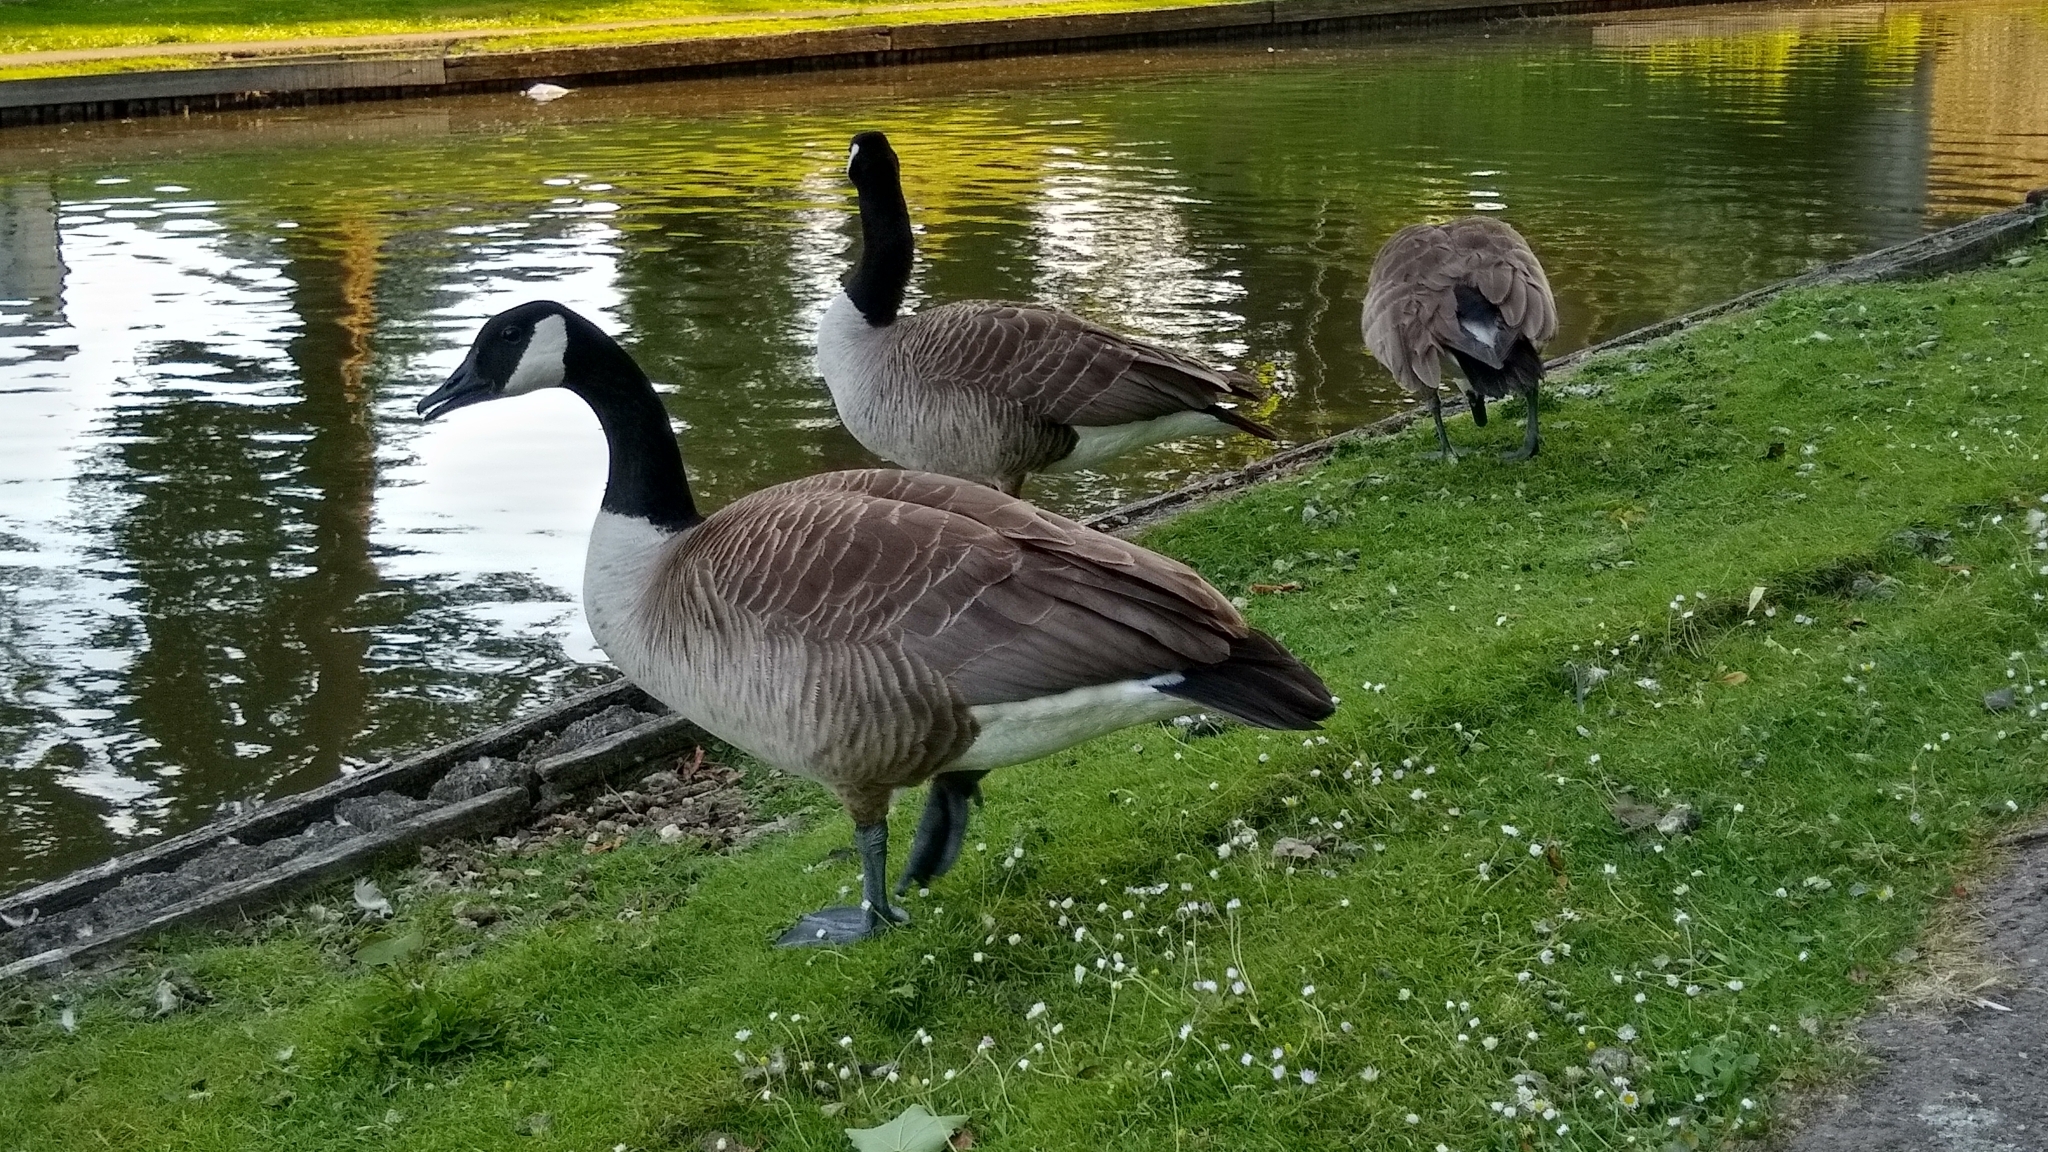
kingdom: Animalia
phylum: Chordata
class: Aves
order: Anseriformes
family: Anatidae
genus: Branta
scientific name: Branta canadensis
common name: Canada goose
